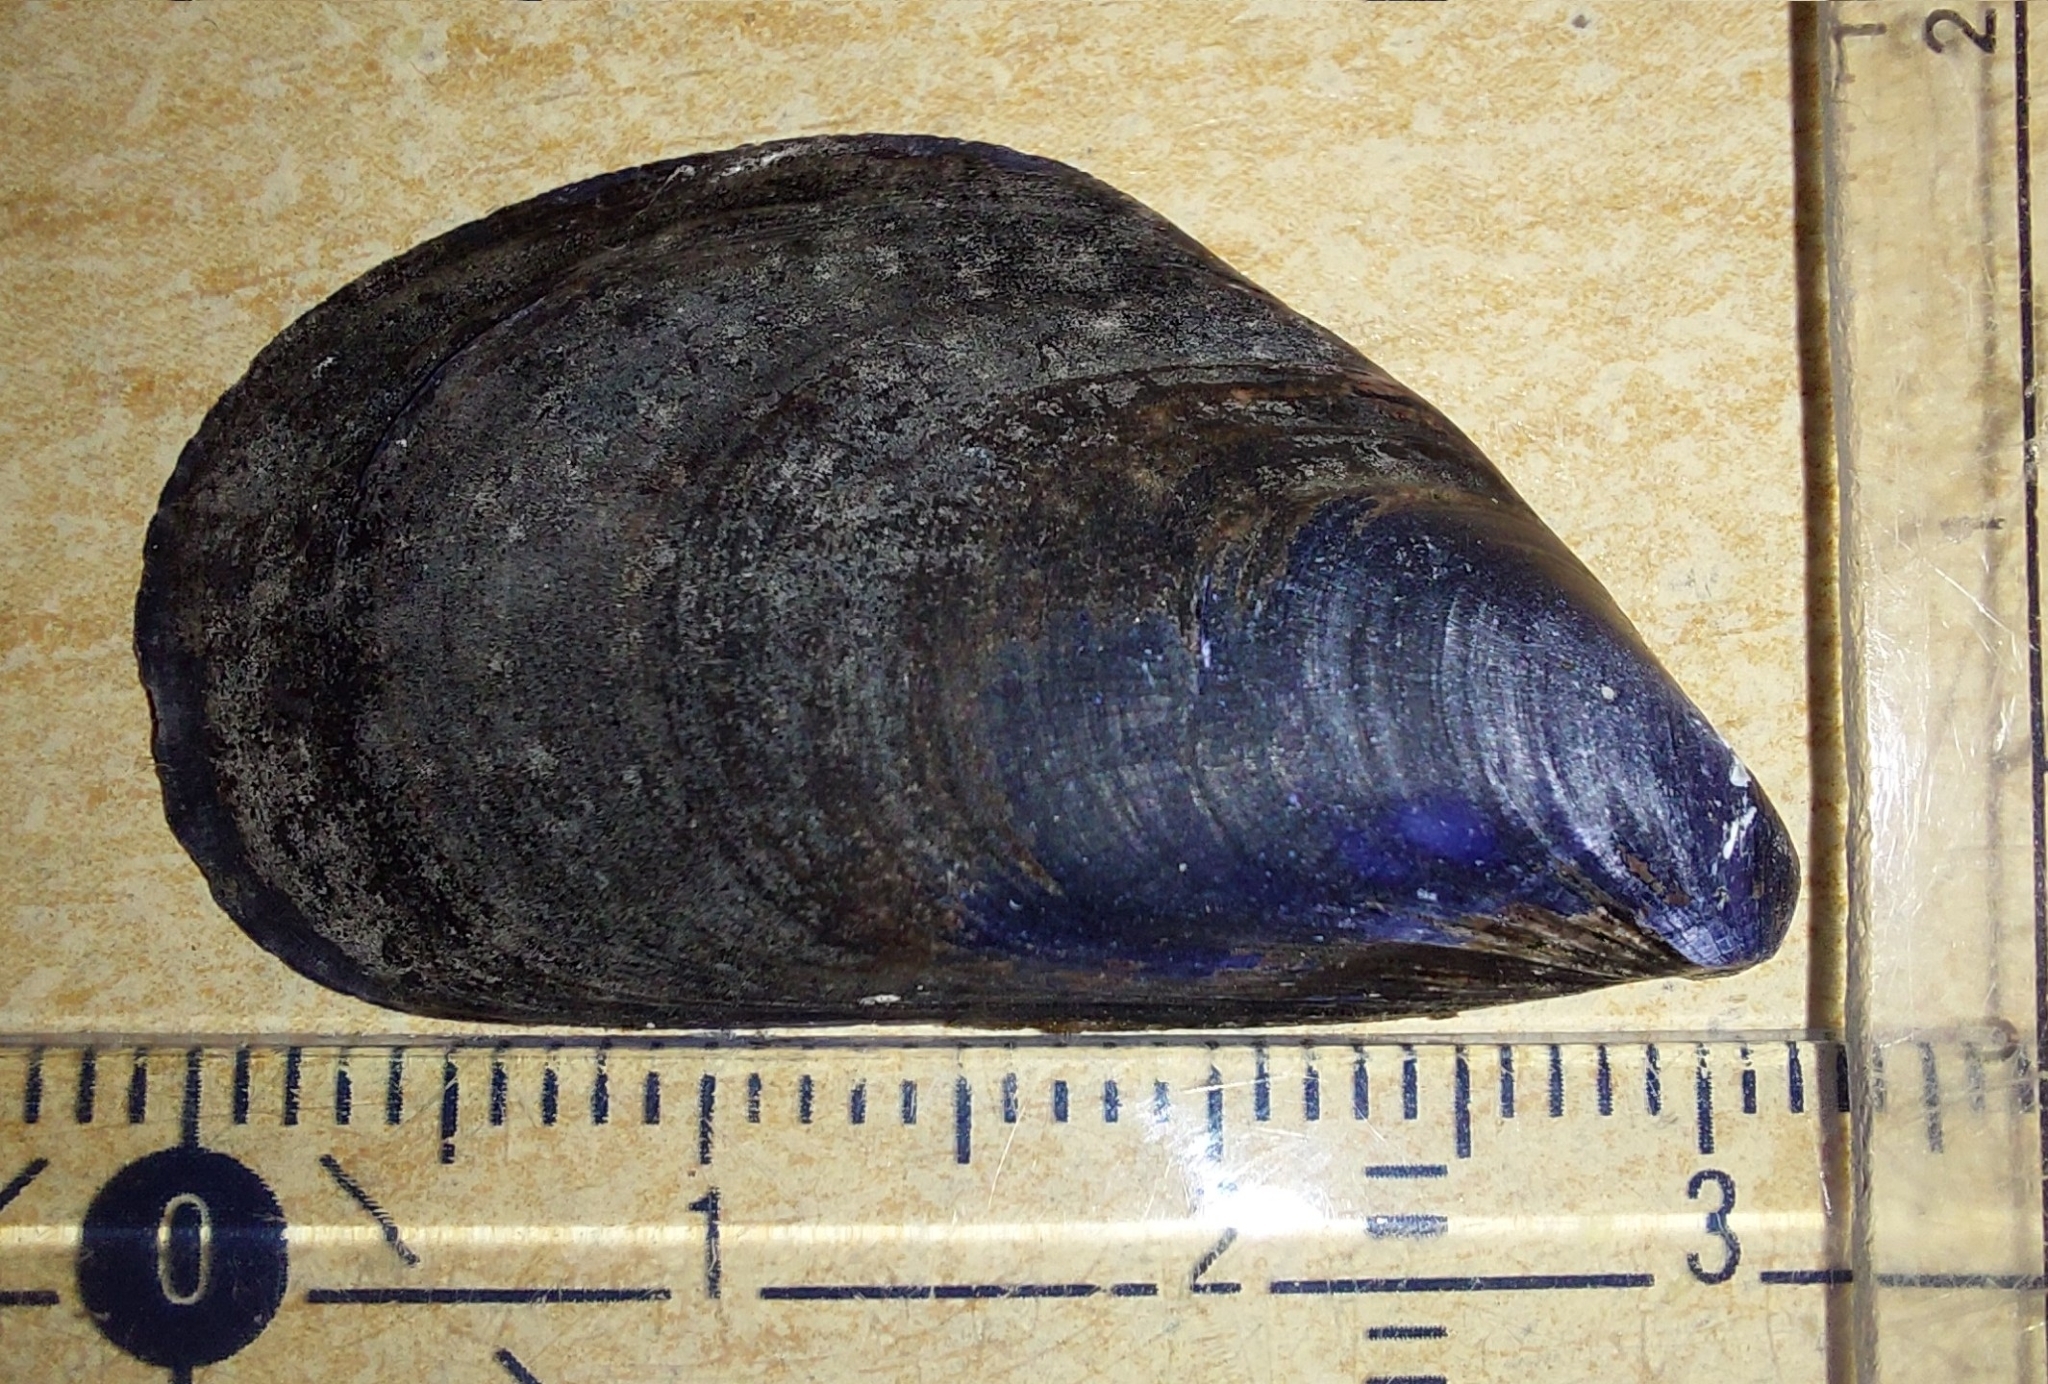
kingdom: Animalia
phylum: Mollusca
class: Bivalvia
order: Mytilida
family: Mytilidae
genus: Mytilus
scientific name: Mytilus galloprovincialis
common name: Mediterranean mussel
